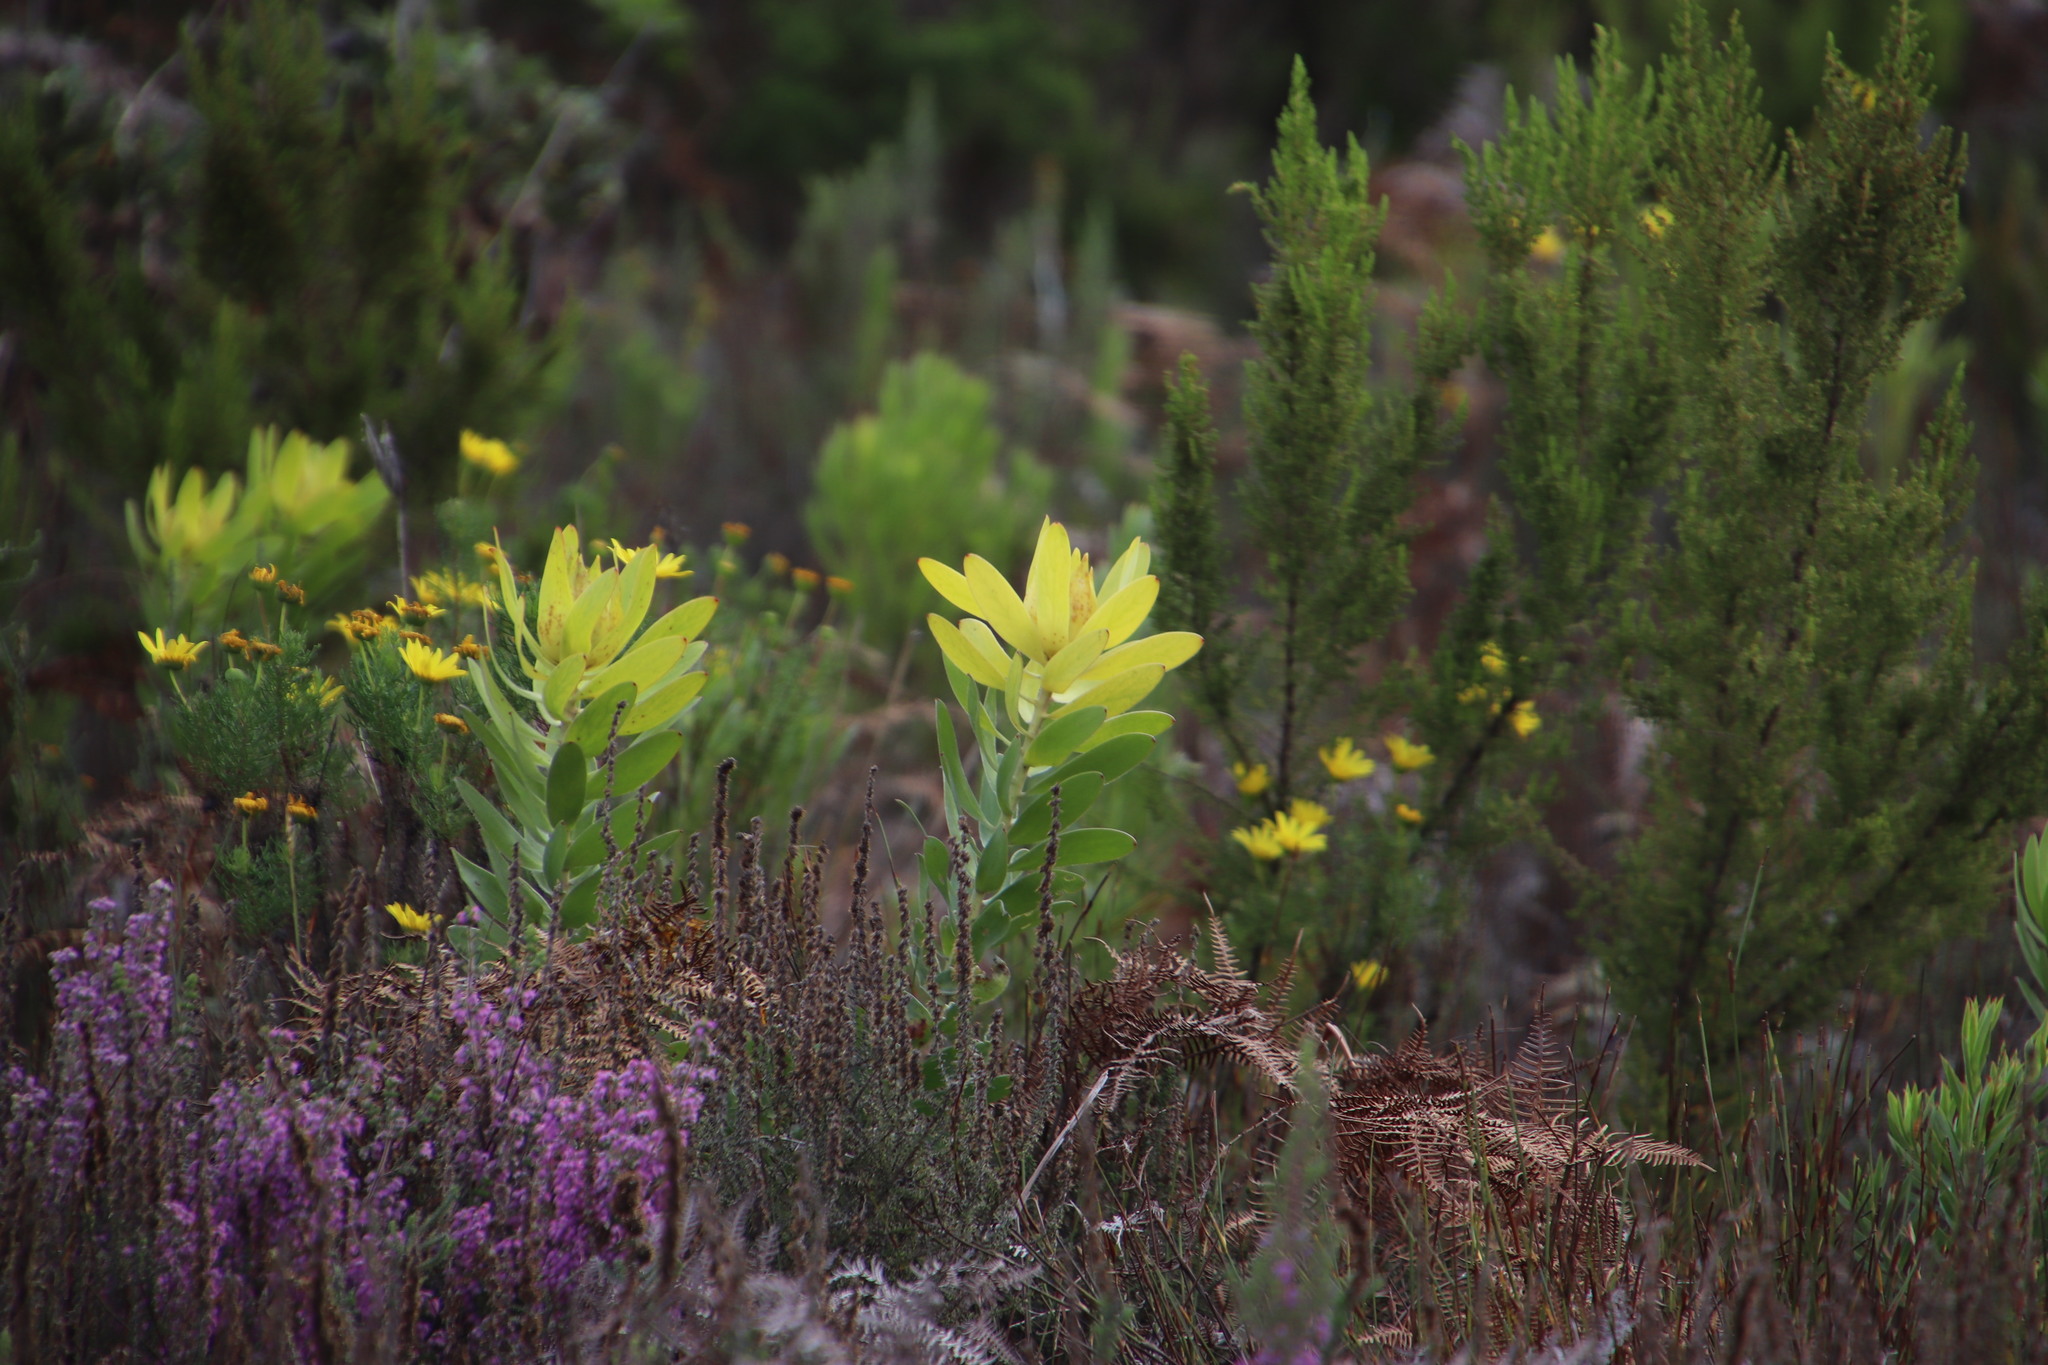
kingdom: Plantae
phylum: Tracheophyta
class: Magnoliopsida
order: Proteales
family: Proteaceae
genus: Leucadendron
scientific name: Leucadendron laureolum
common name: Golden sunshinebush
